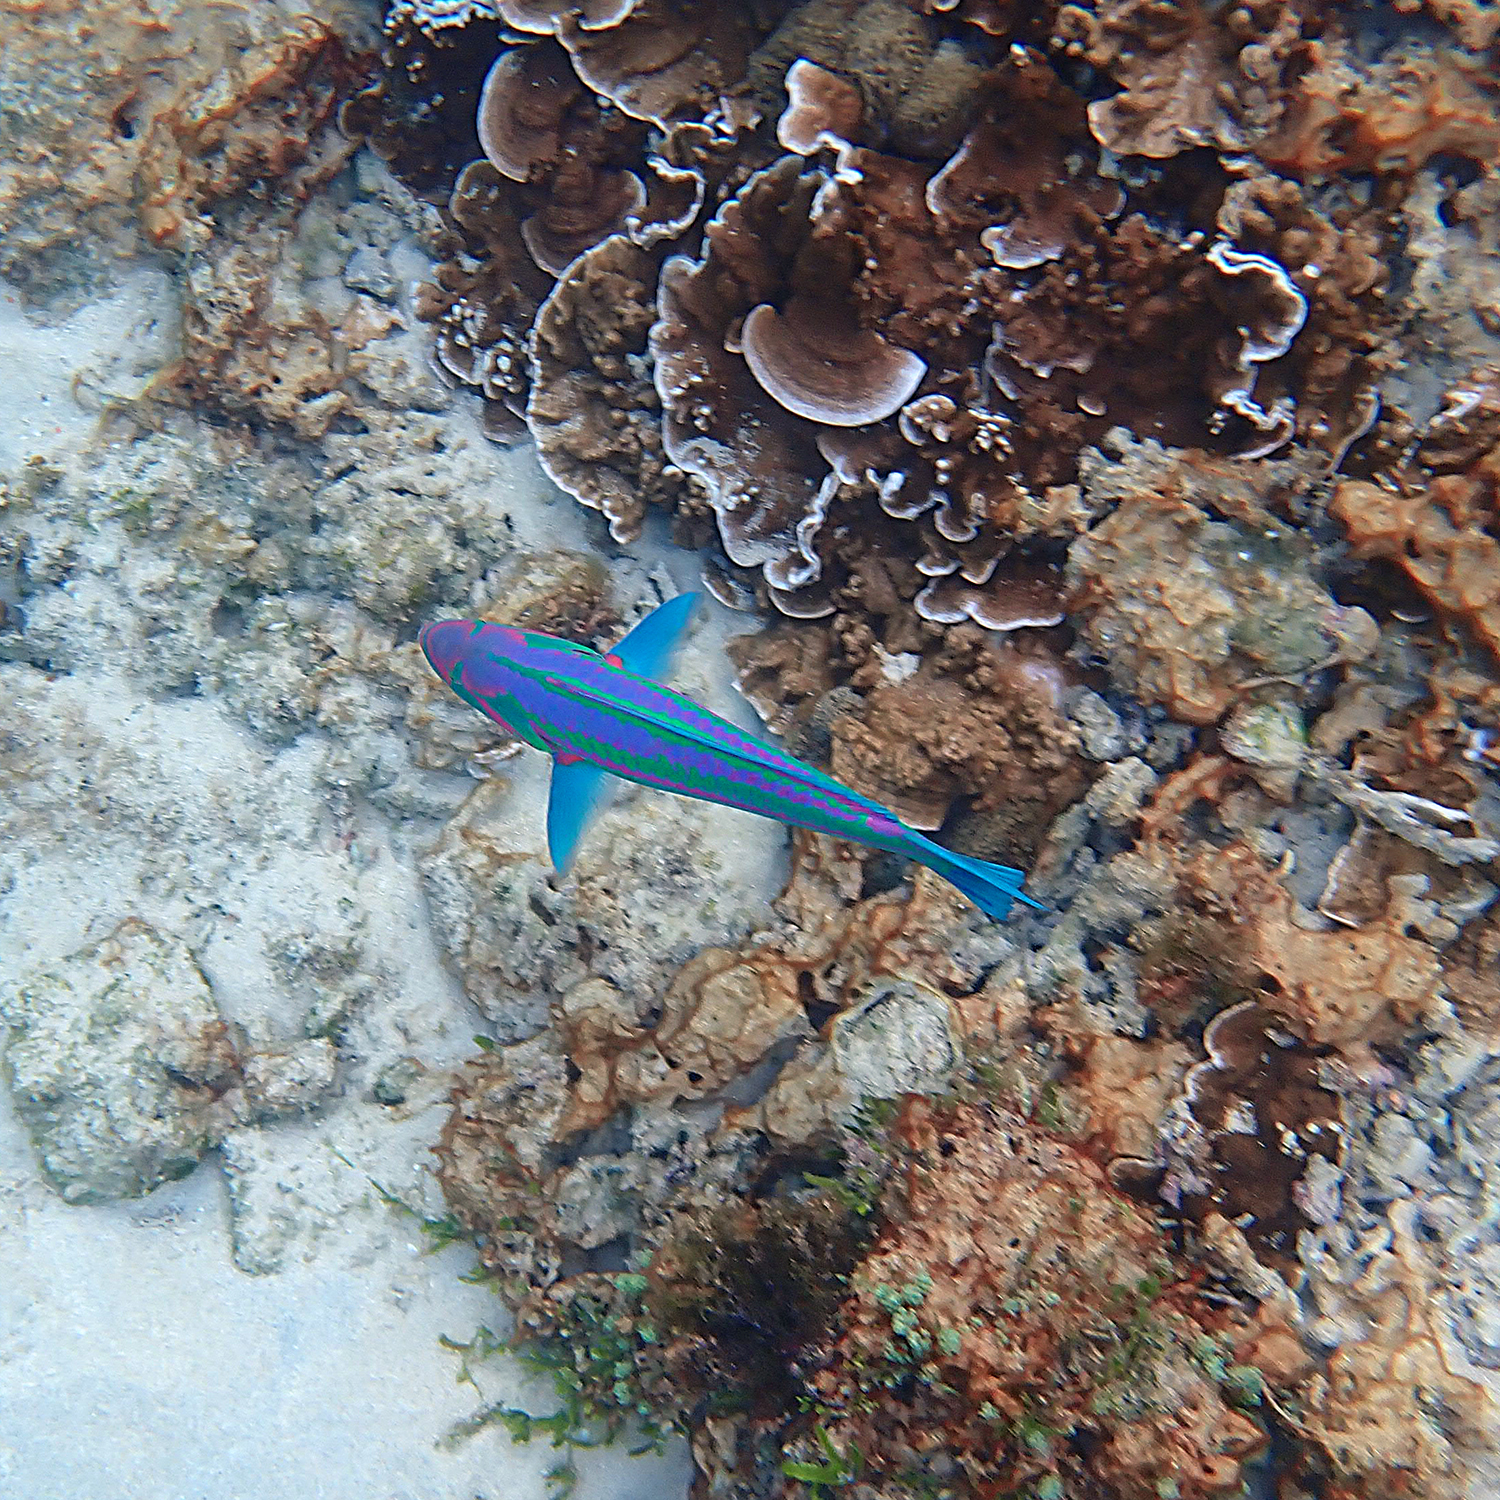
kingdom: Animalia
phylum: Chordata
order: Perciformes
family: Labridae
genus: Thalassoma
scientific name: Thalassoma purpureum
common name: Parrotfish
